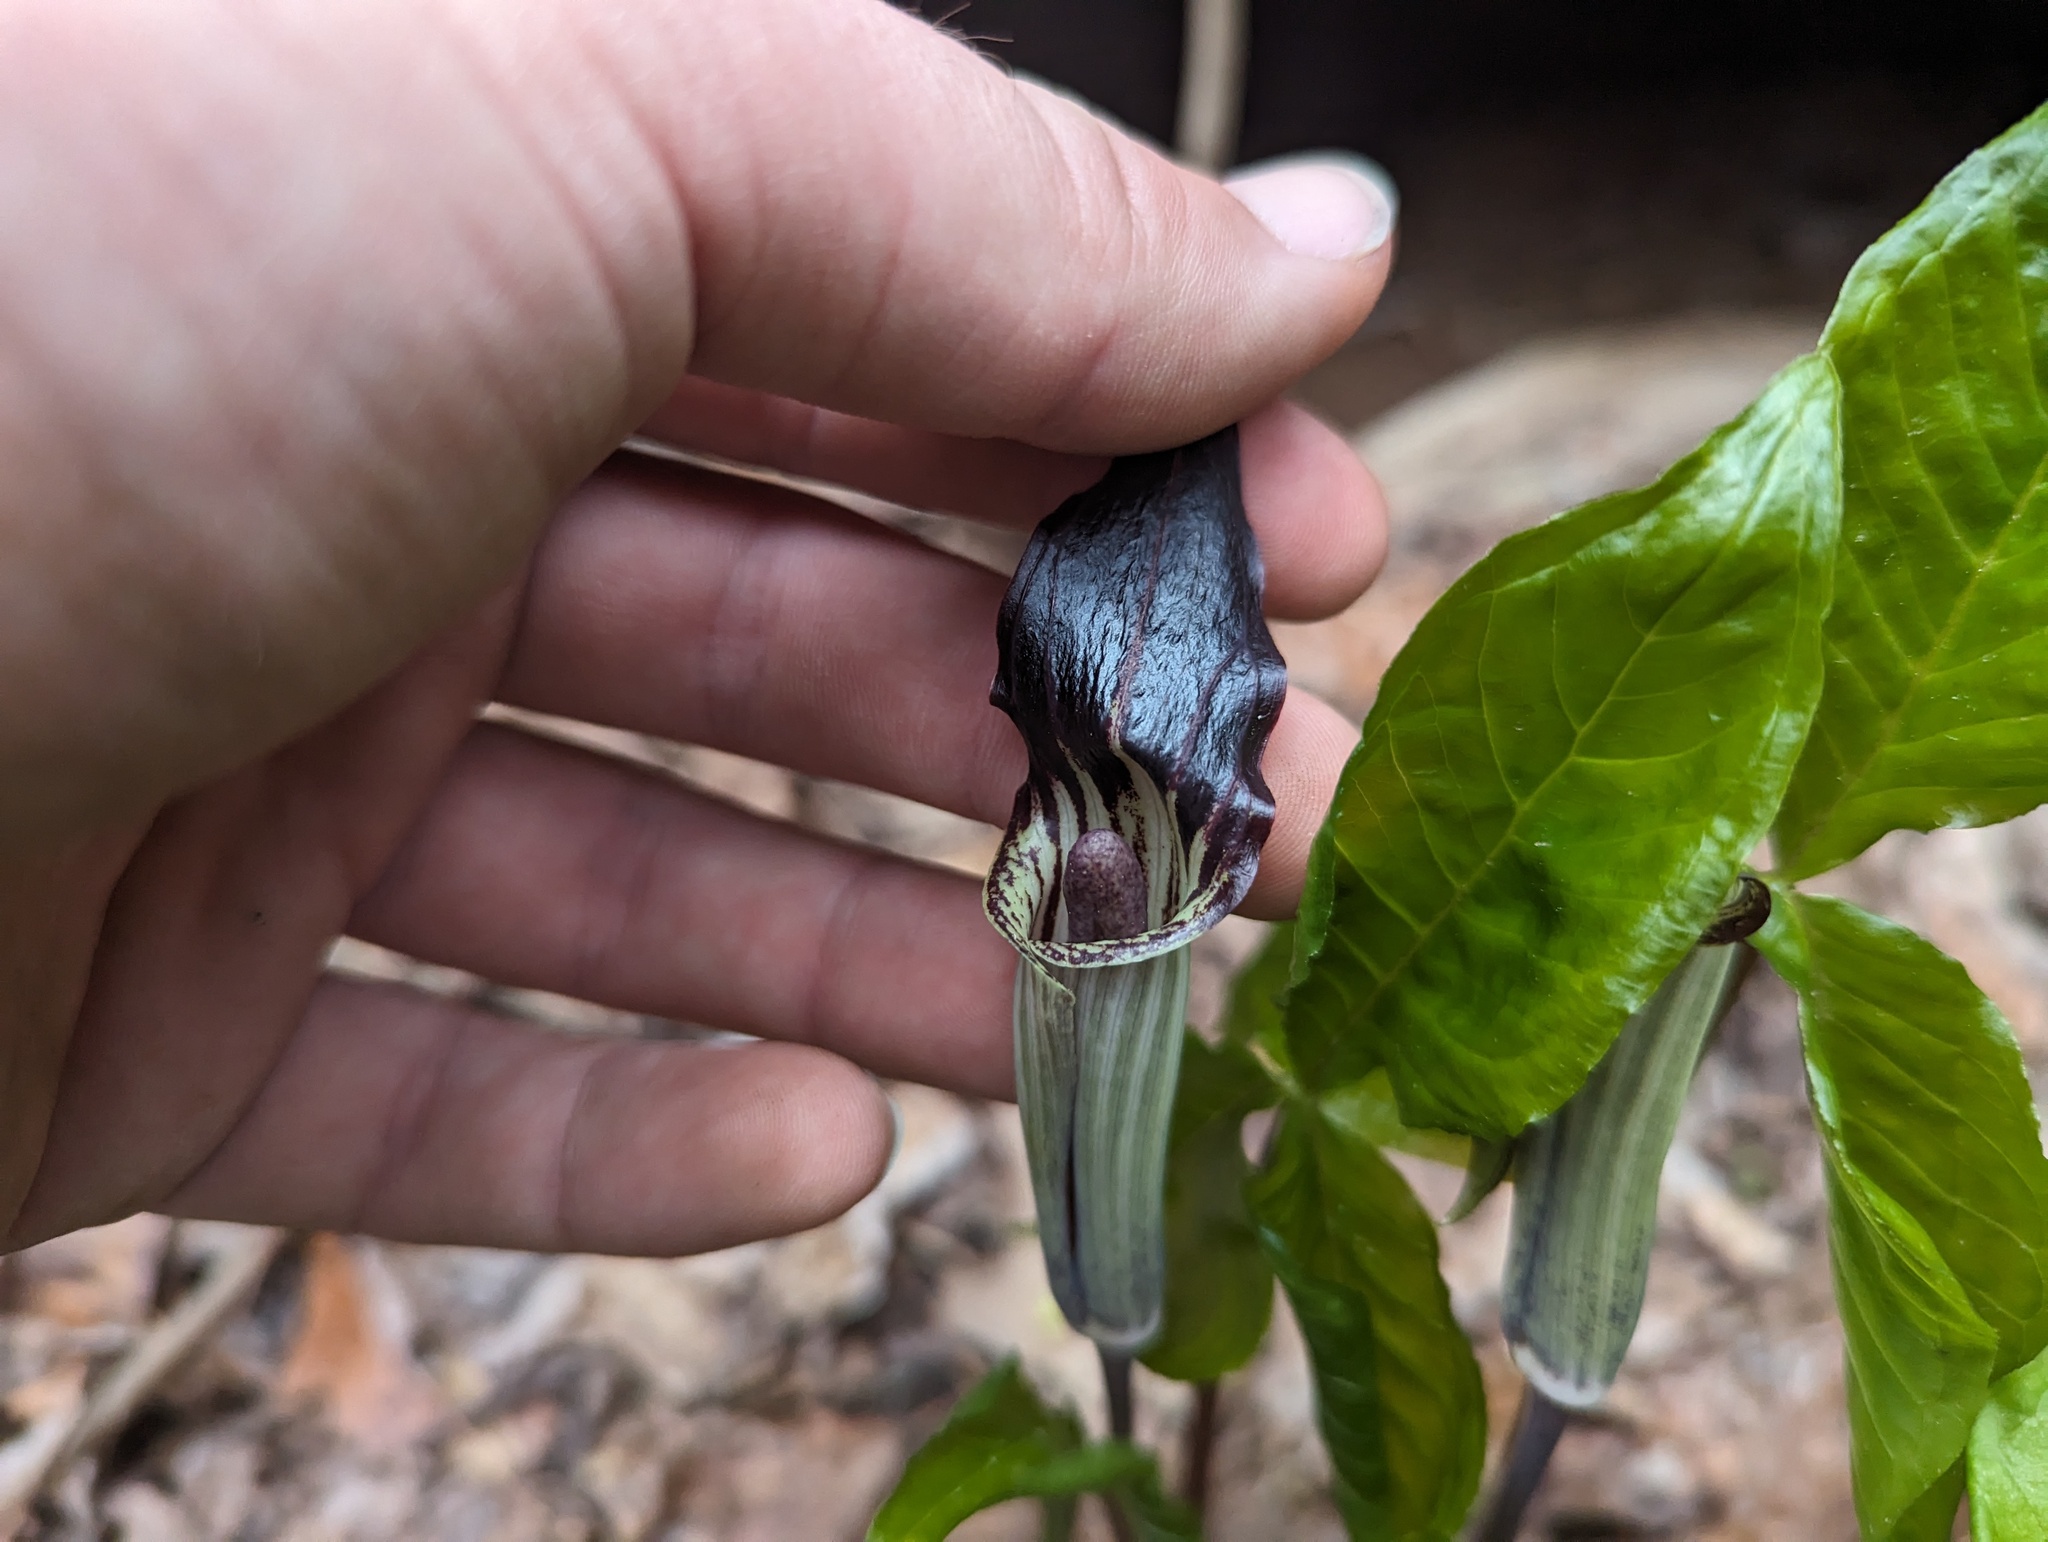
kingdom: Plantae
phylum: Tracheophyta
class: Liliopsida
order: Alismatales
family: Araceae
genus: Arisaema
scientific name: Arisaema pusillum
